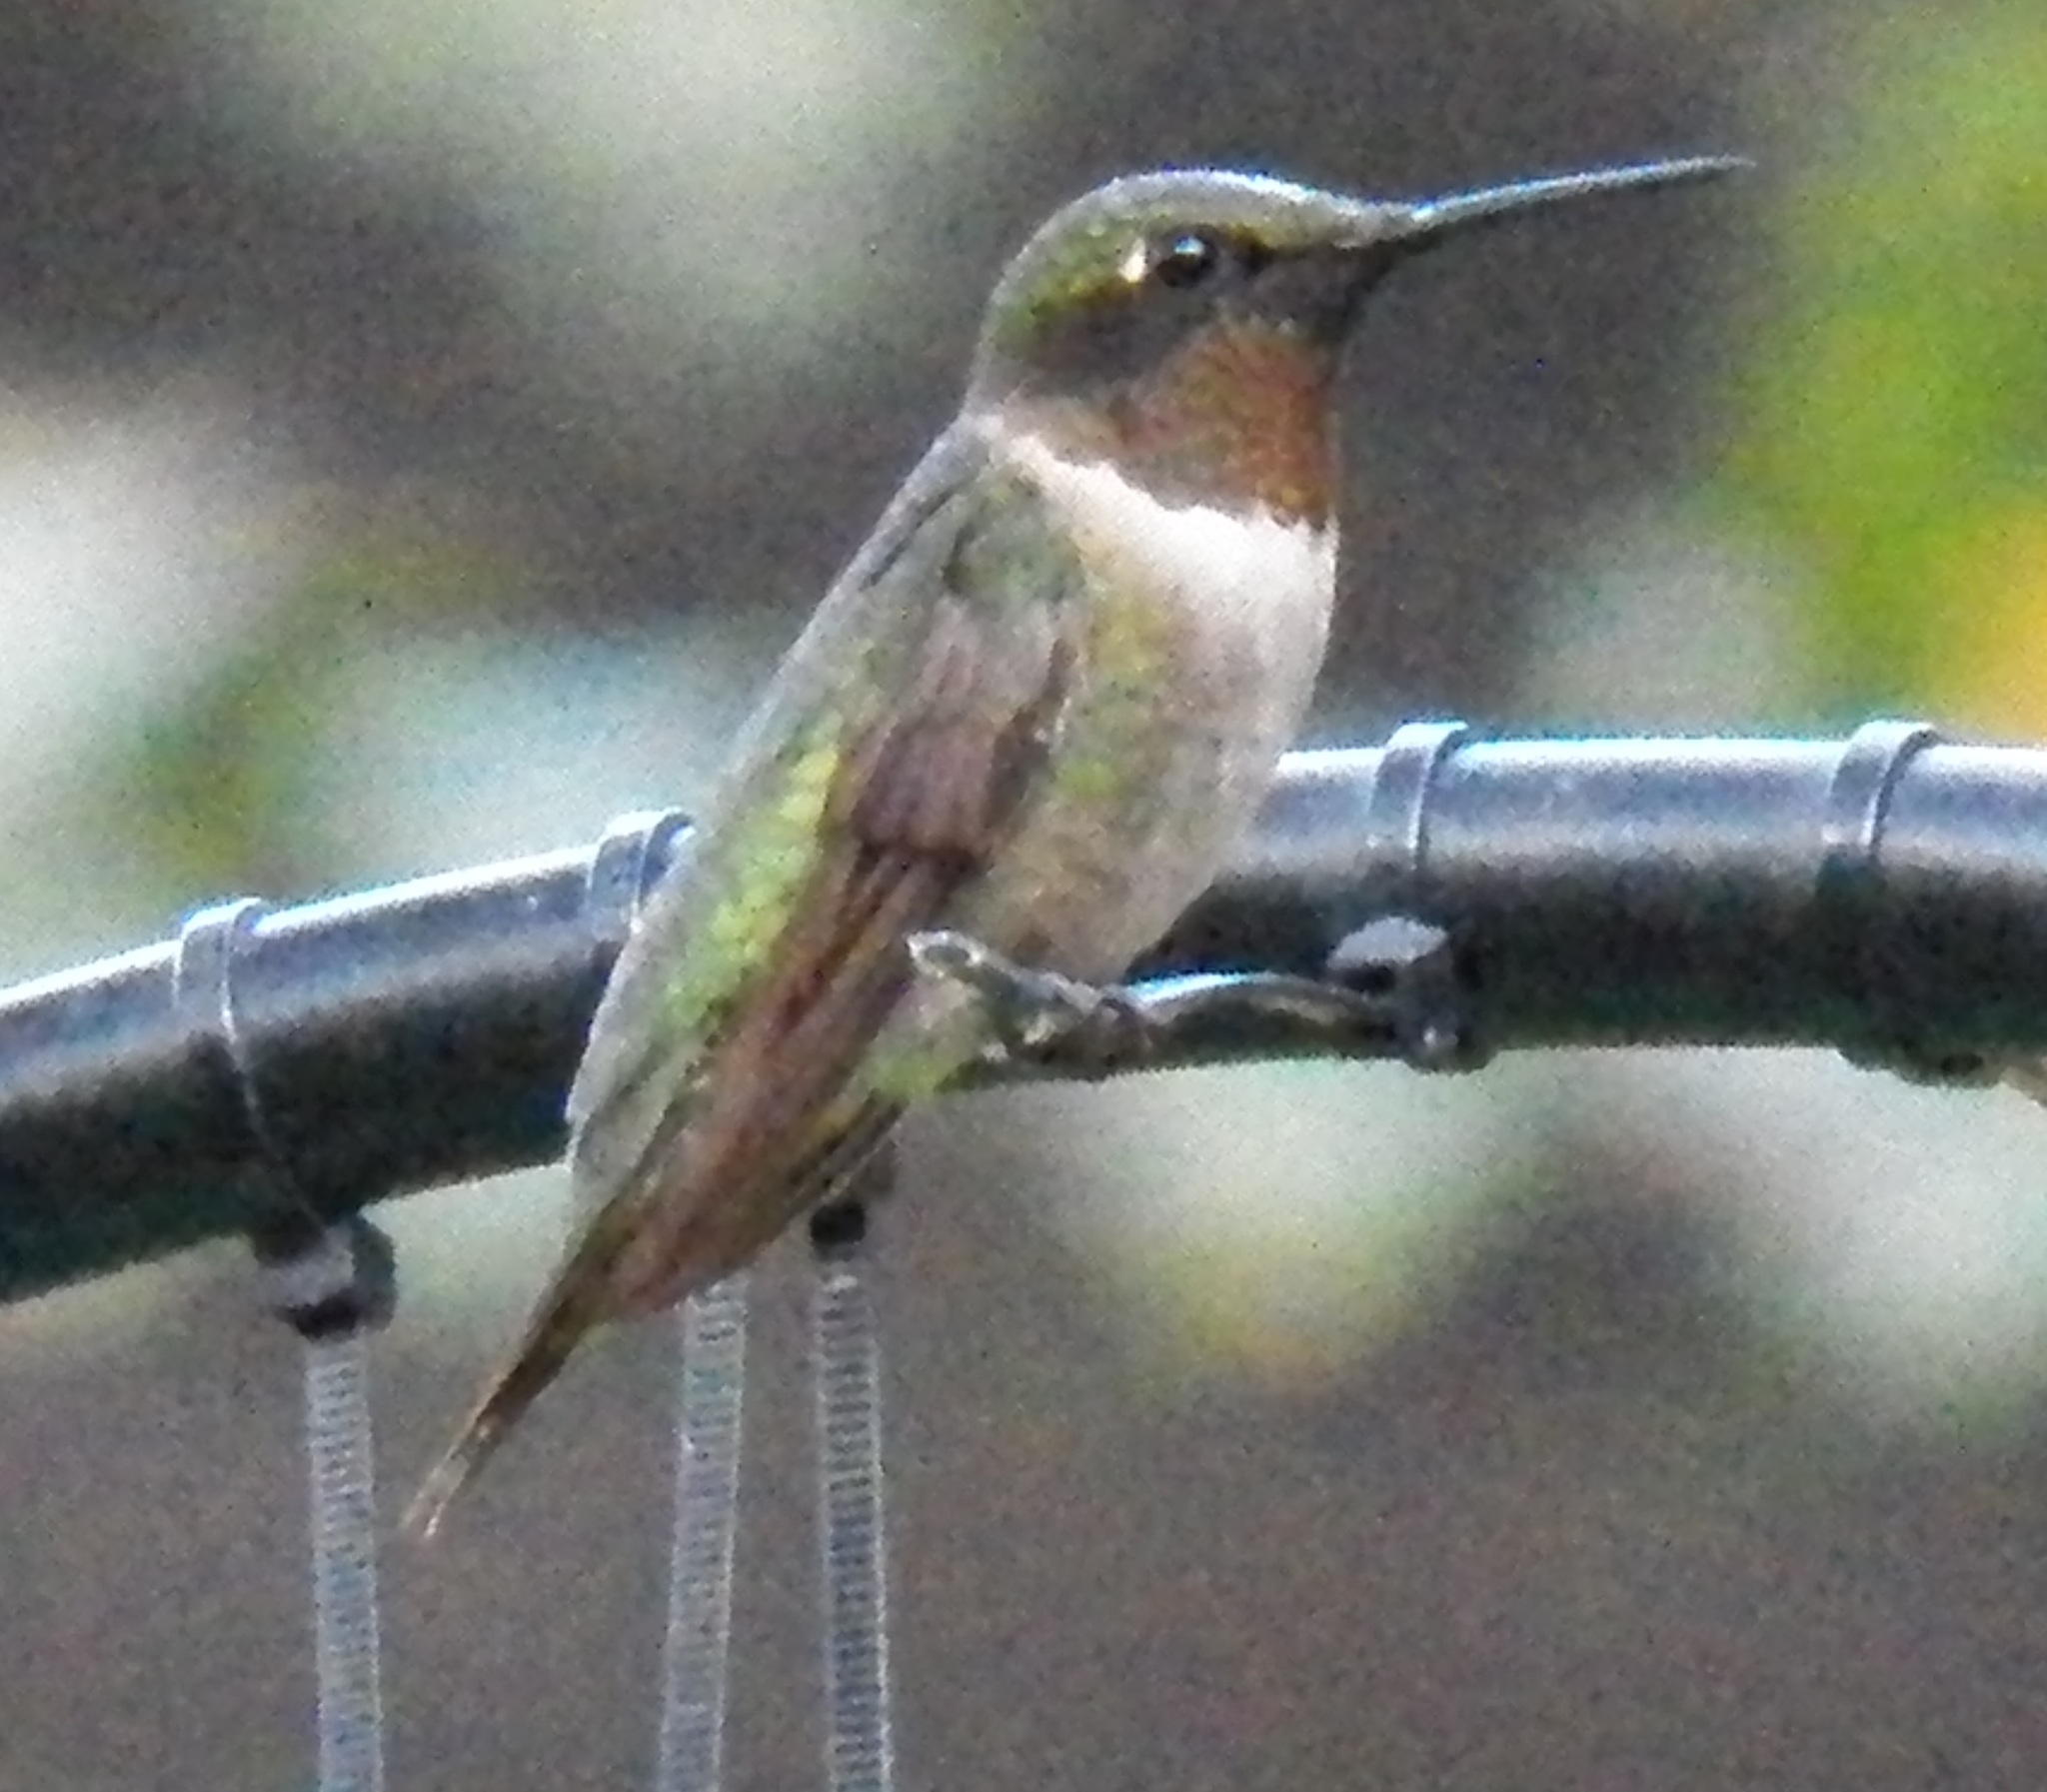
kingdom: Animalia
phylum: Chordata
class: Aves
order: Apodiformes
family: Trochilidae
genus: Archilochus
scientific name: Archilochus colubris
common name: Ruby-throated hummingbird
